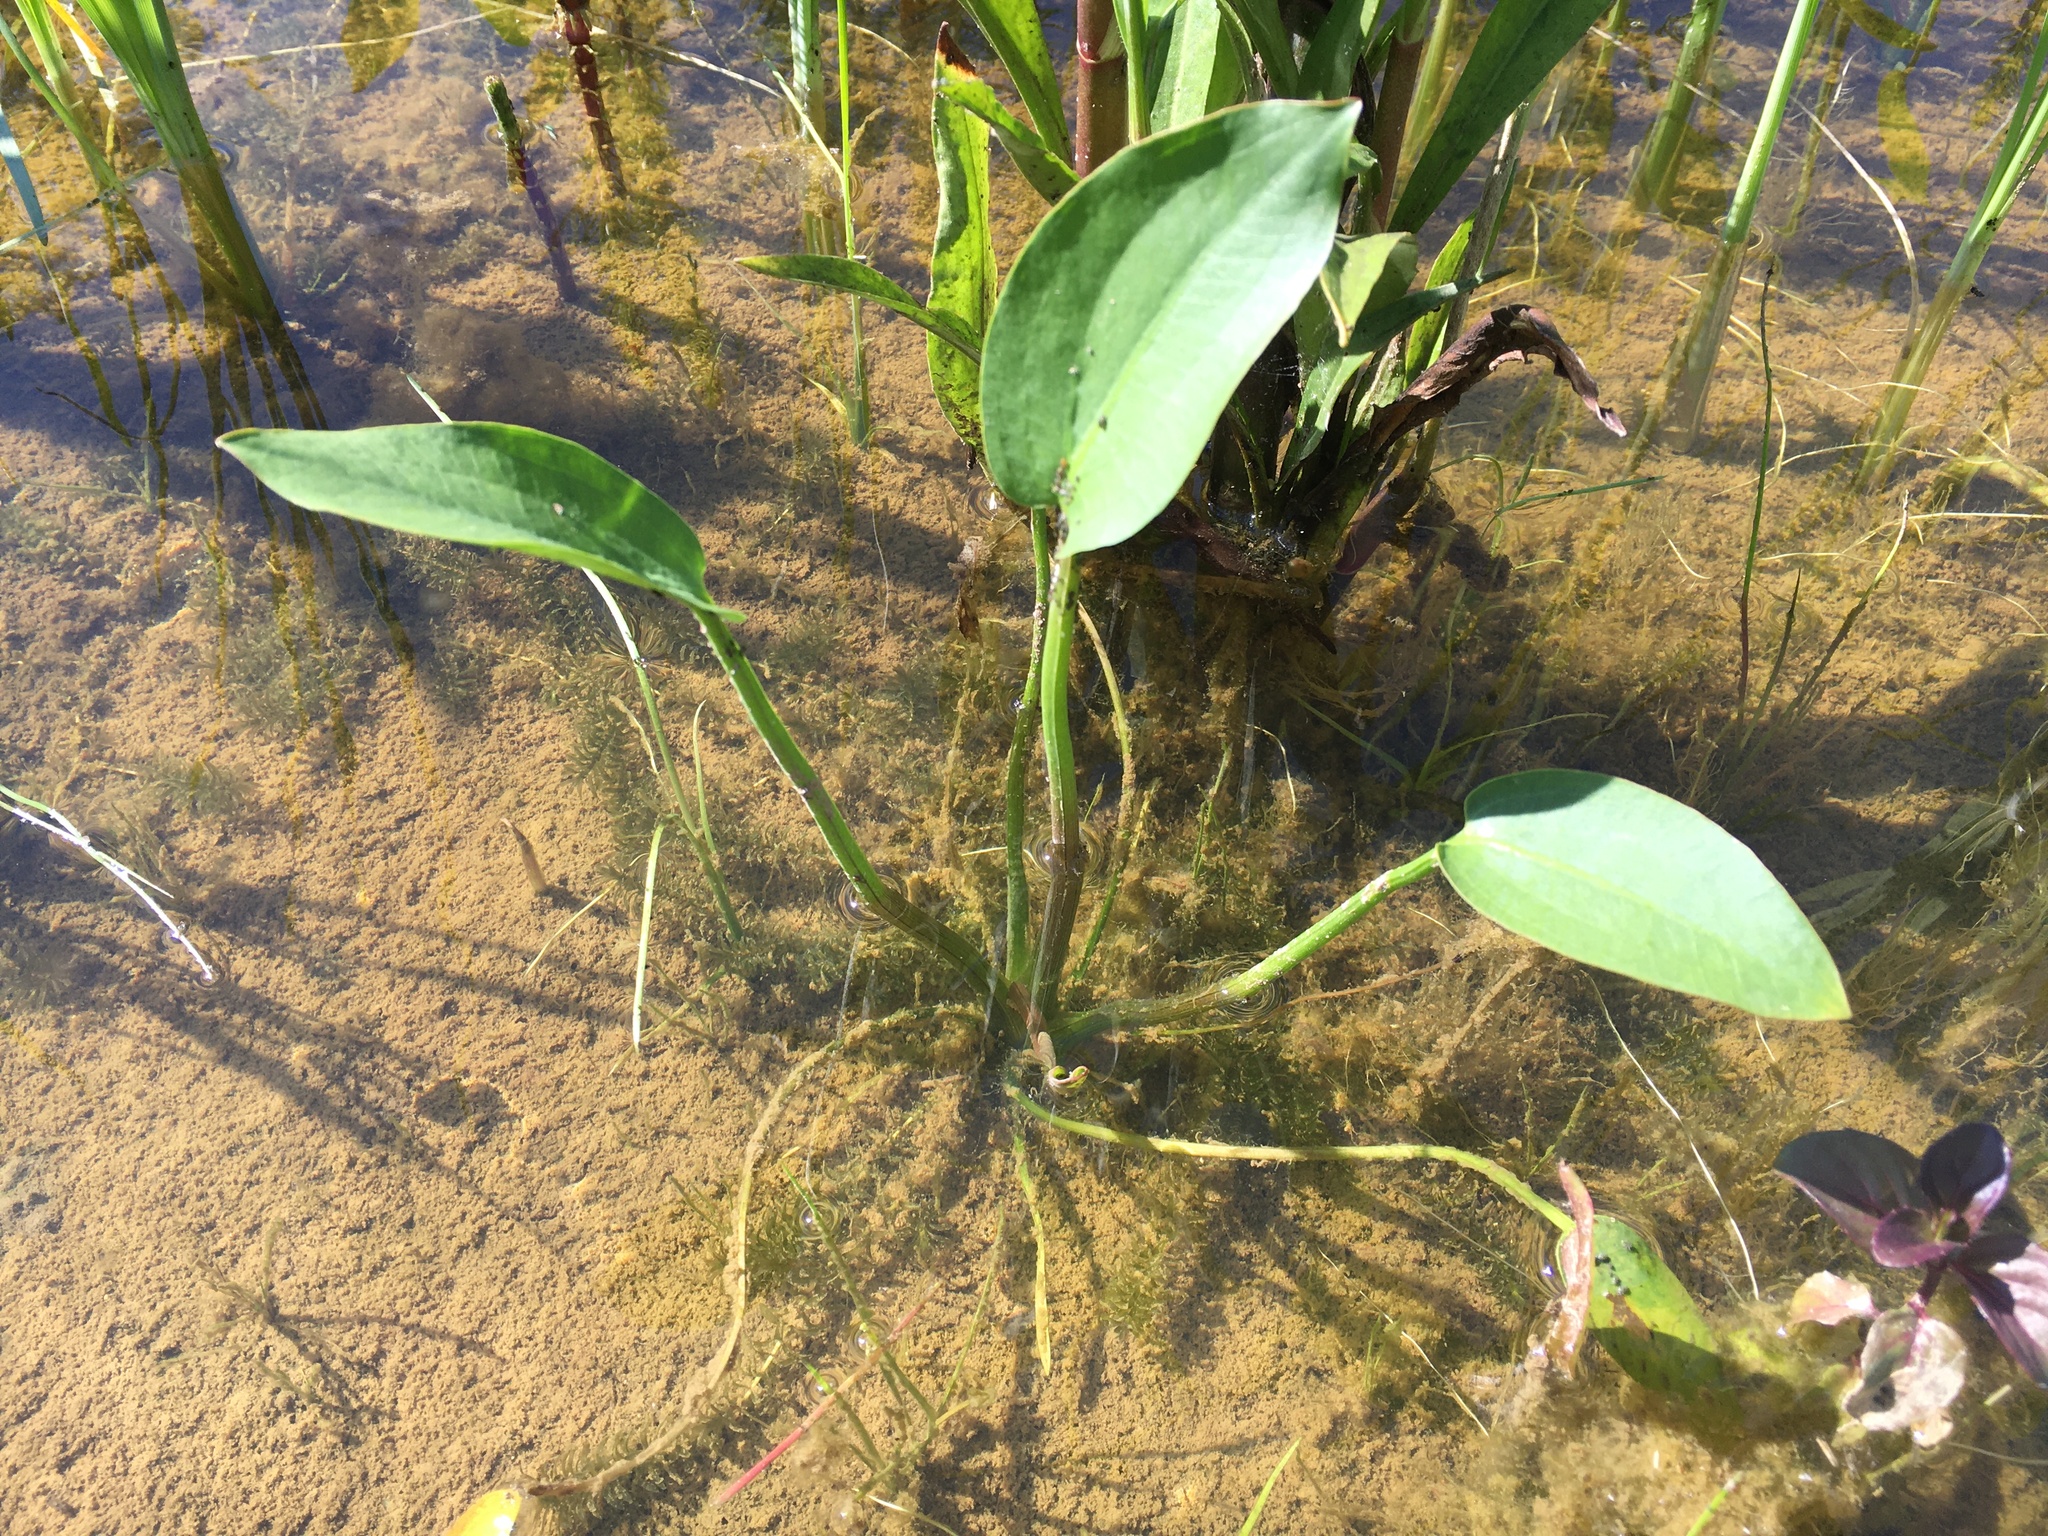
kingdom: Plantae
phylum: Tracheophyta
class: Liliopsida
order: Alismatales
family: Alismataceae
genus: Alisma
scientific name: Alisma plantago-aquatica
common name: Water-plantain
